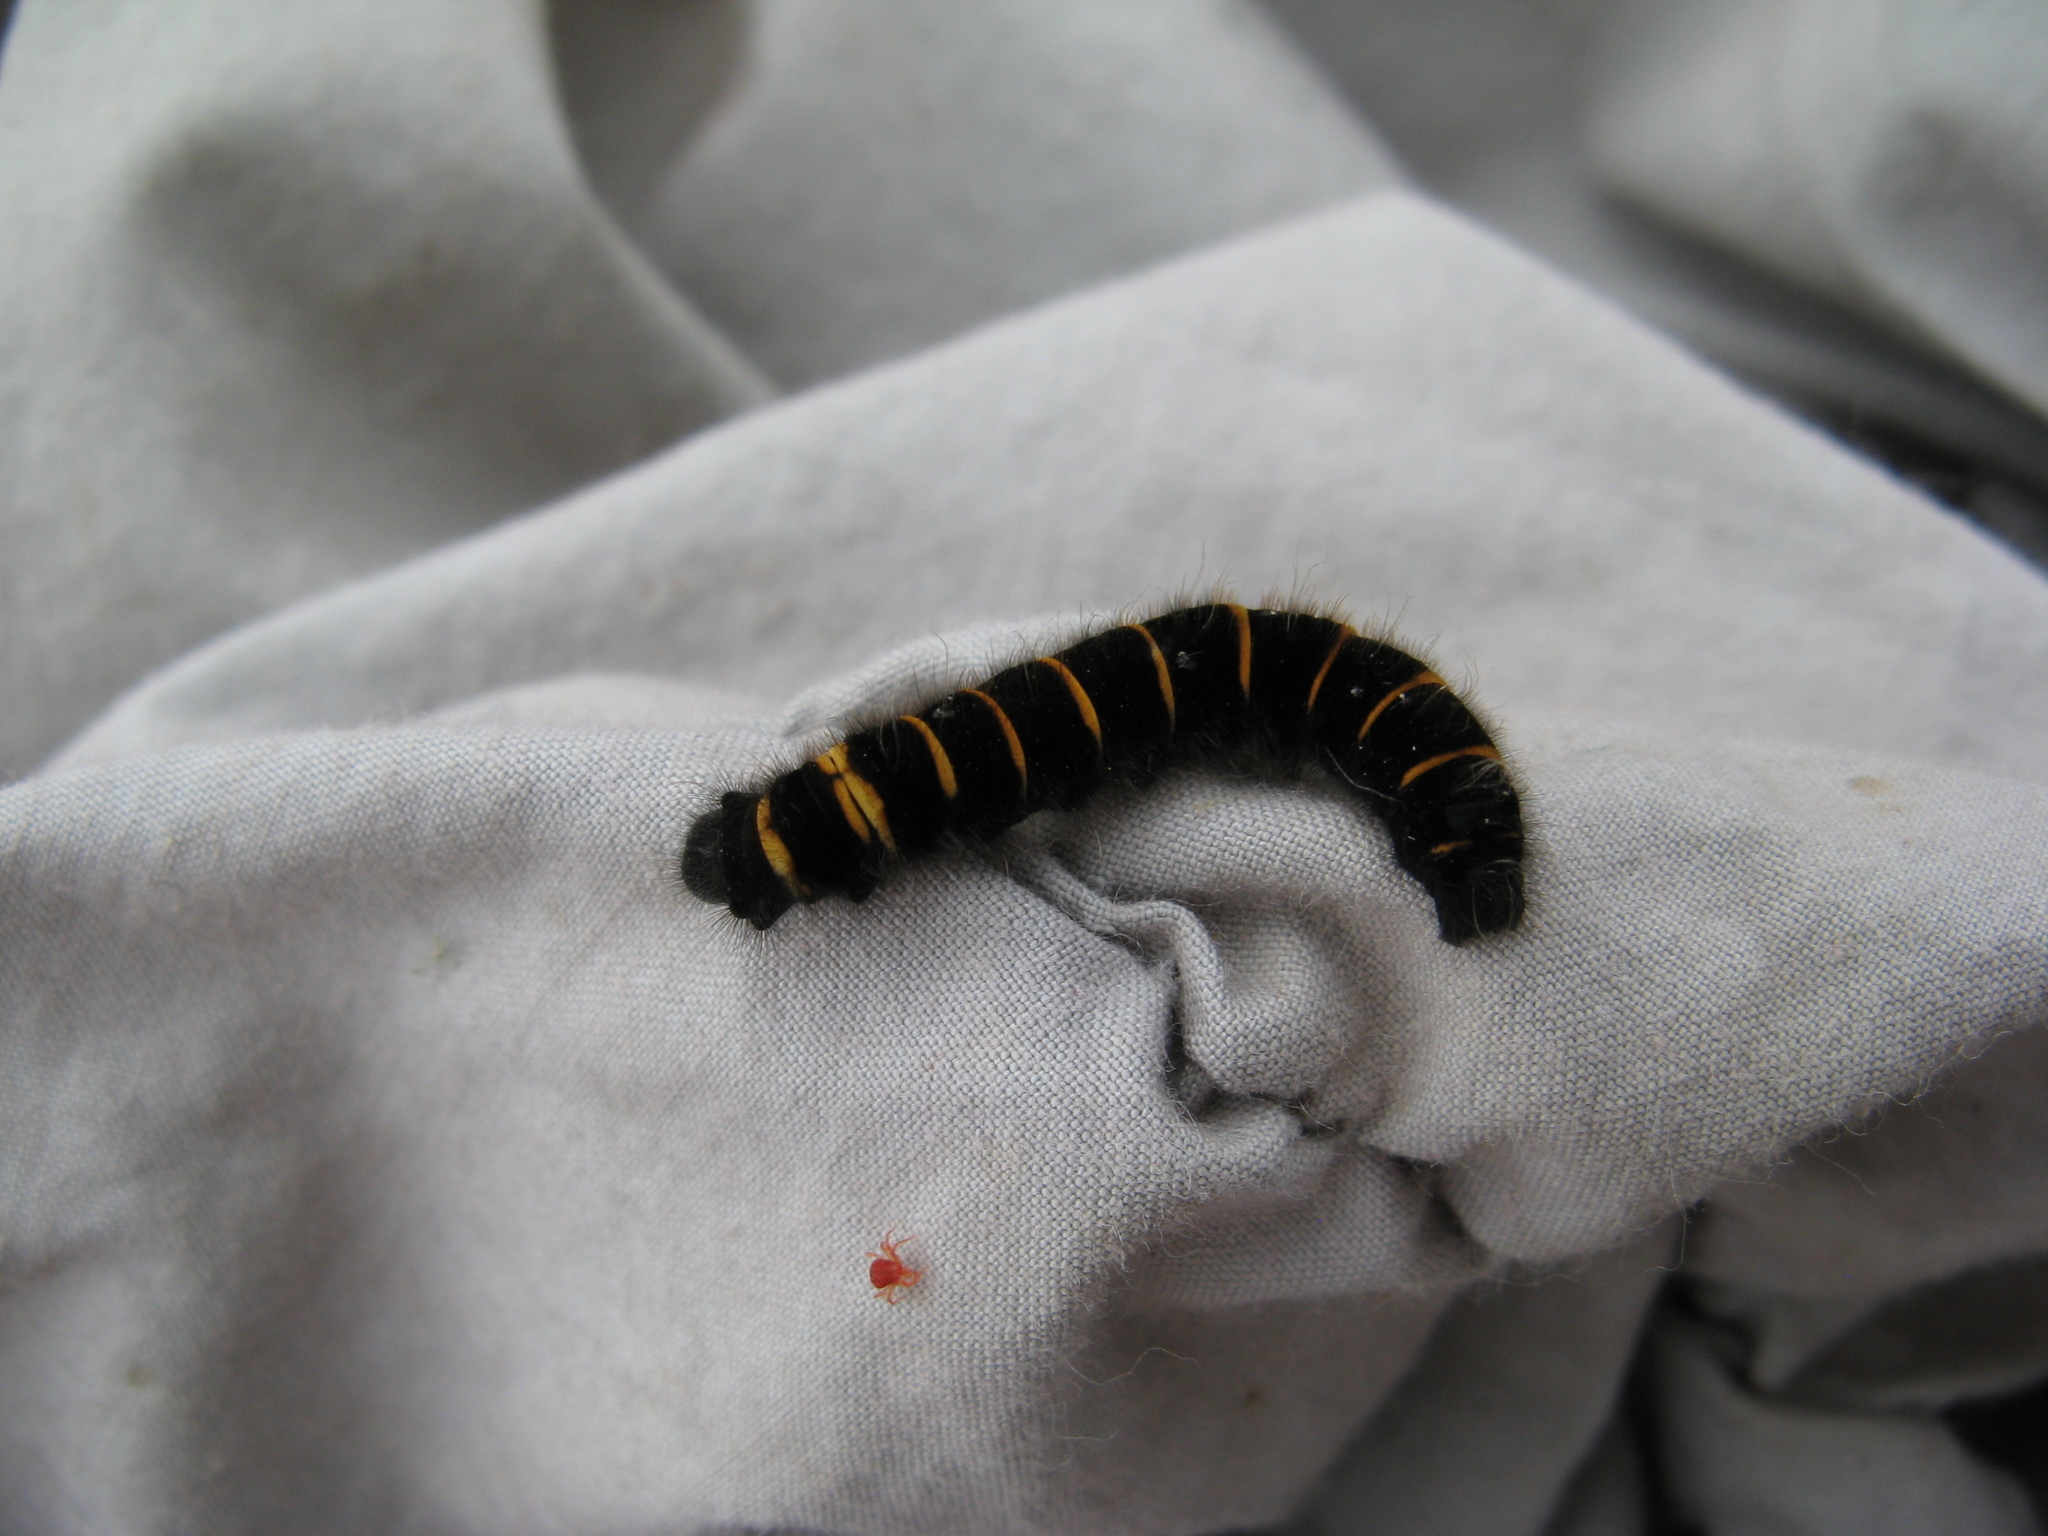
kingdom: Animalia
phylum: Arthropoda
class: Insecta
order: Lepidoptera
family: Lasiocampidae
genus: Macrothylacia
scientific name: Macrothylacia rubi
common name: Fox moth
